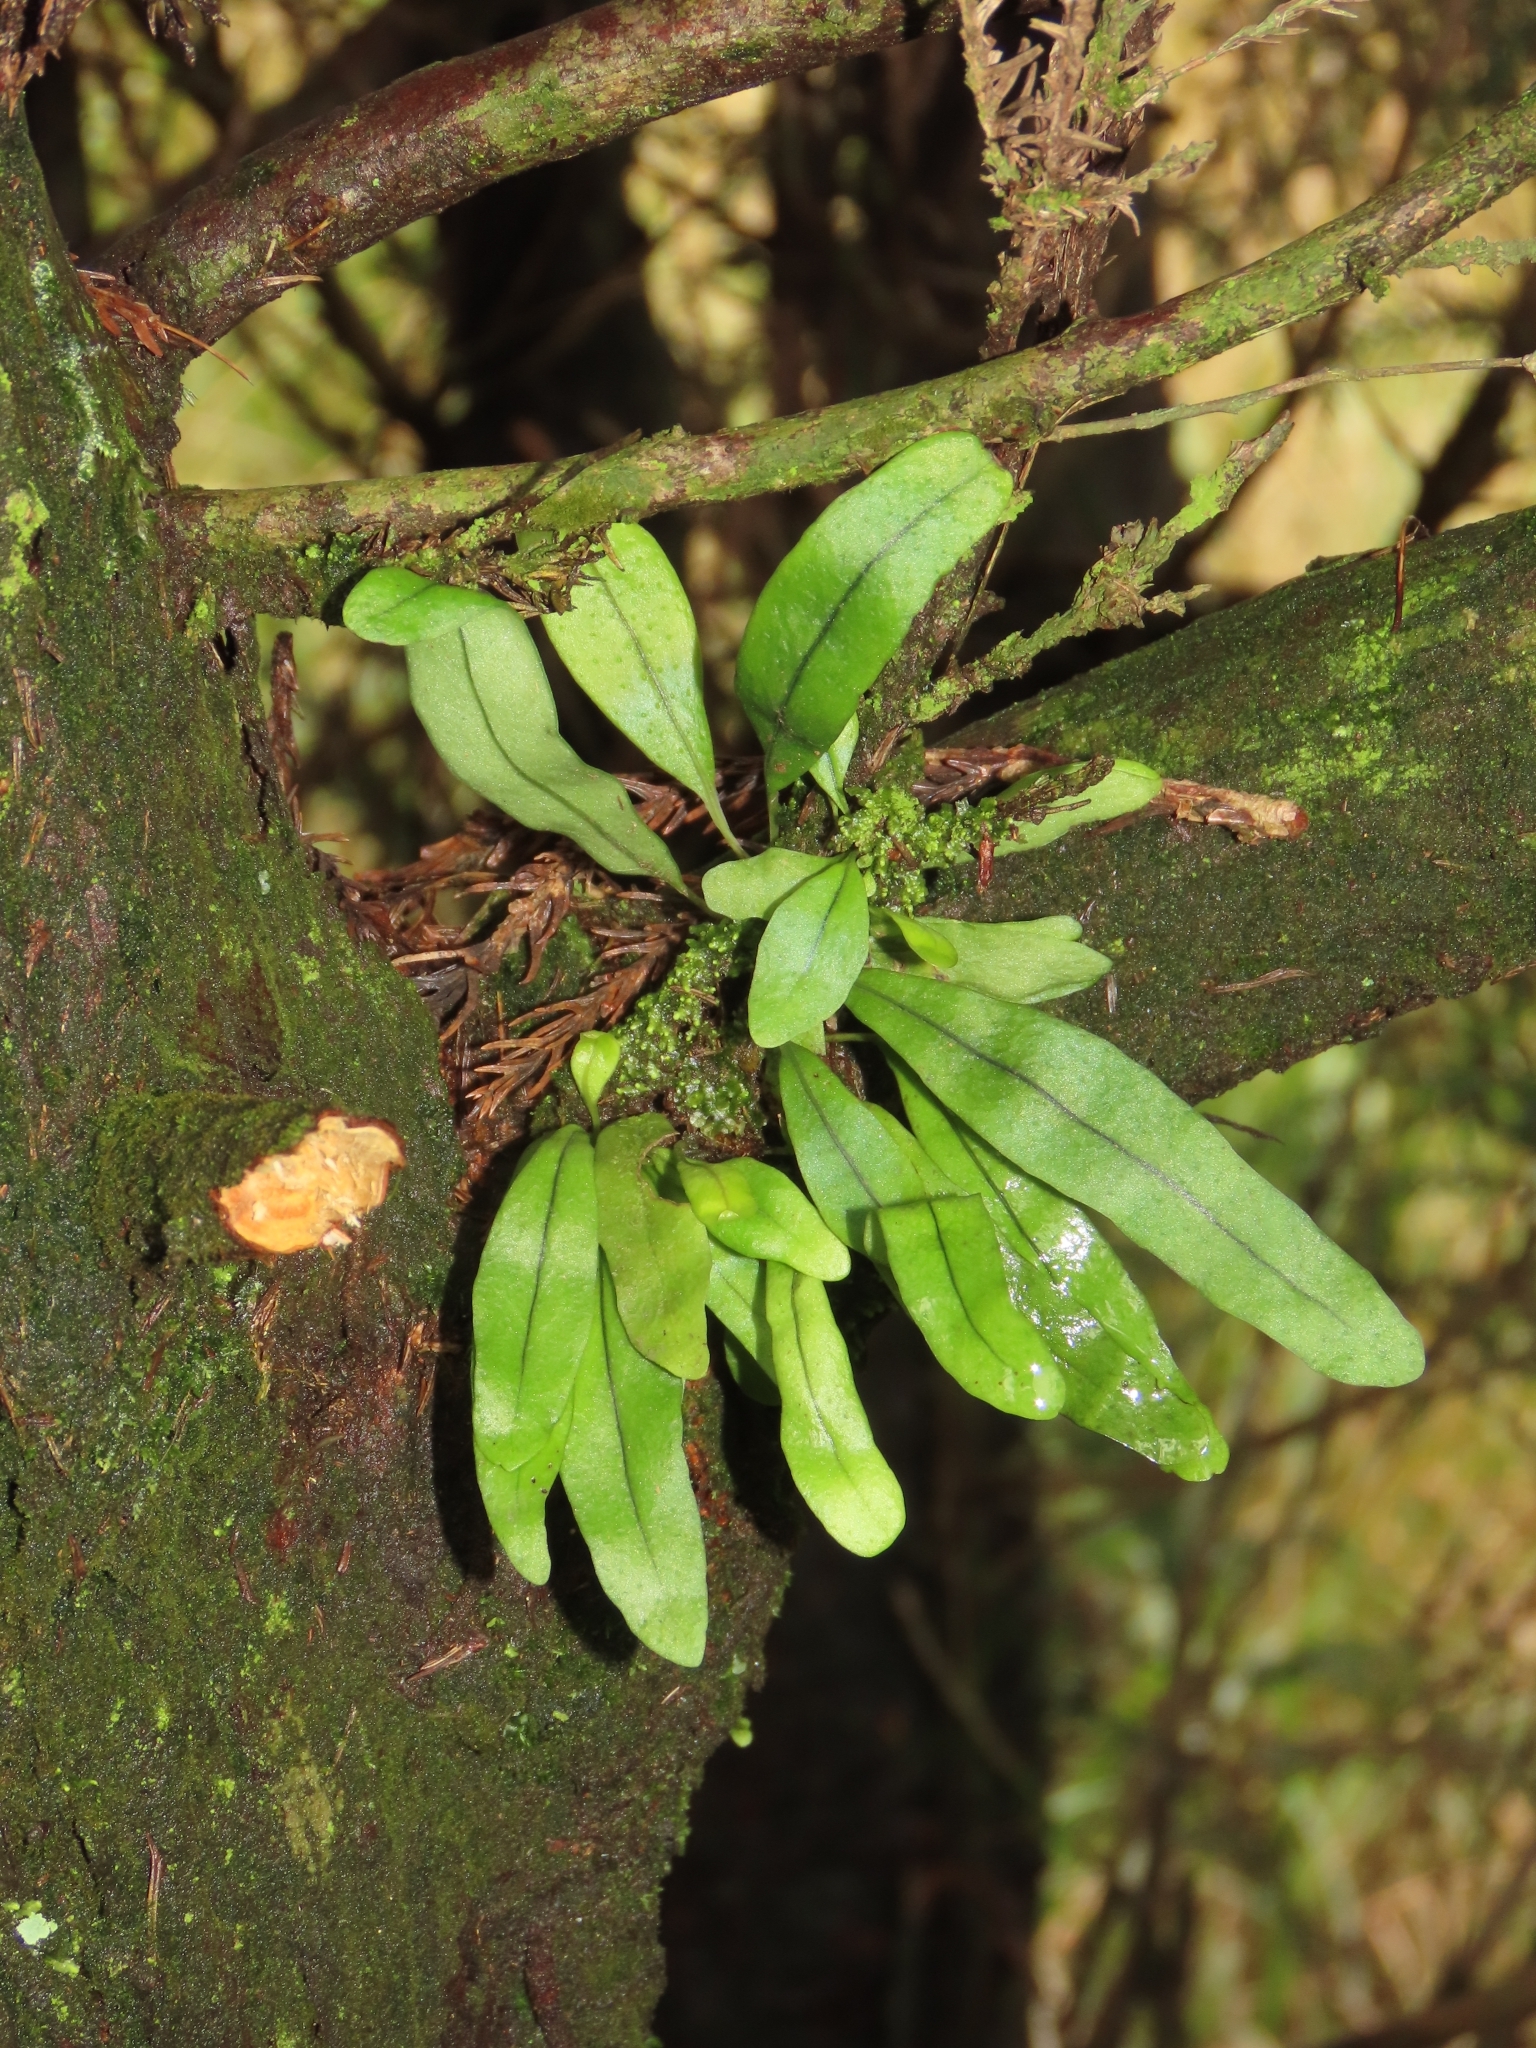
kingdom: Plantae
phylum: Tracheophyta
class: Polypodiopsida
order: Polypodiales
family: Polypodiaceae
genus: Lepisorus
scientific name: Lepisorus thunbergianus
